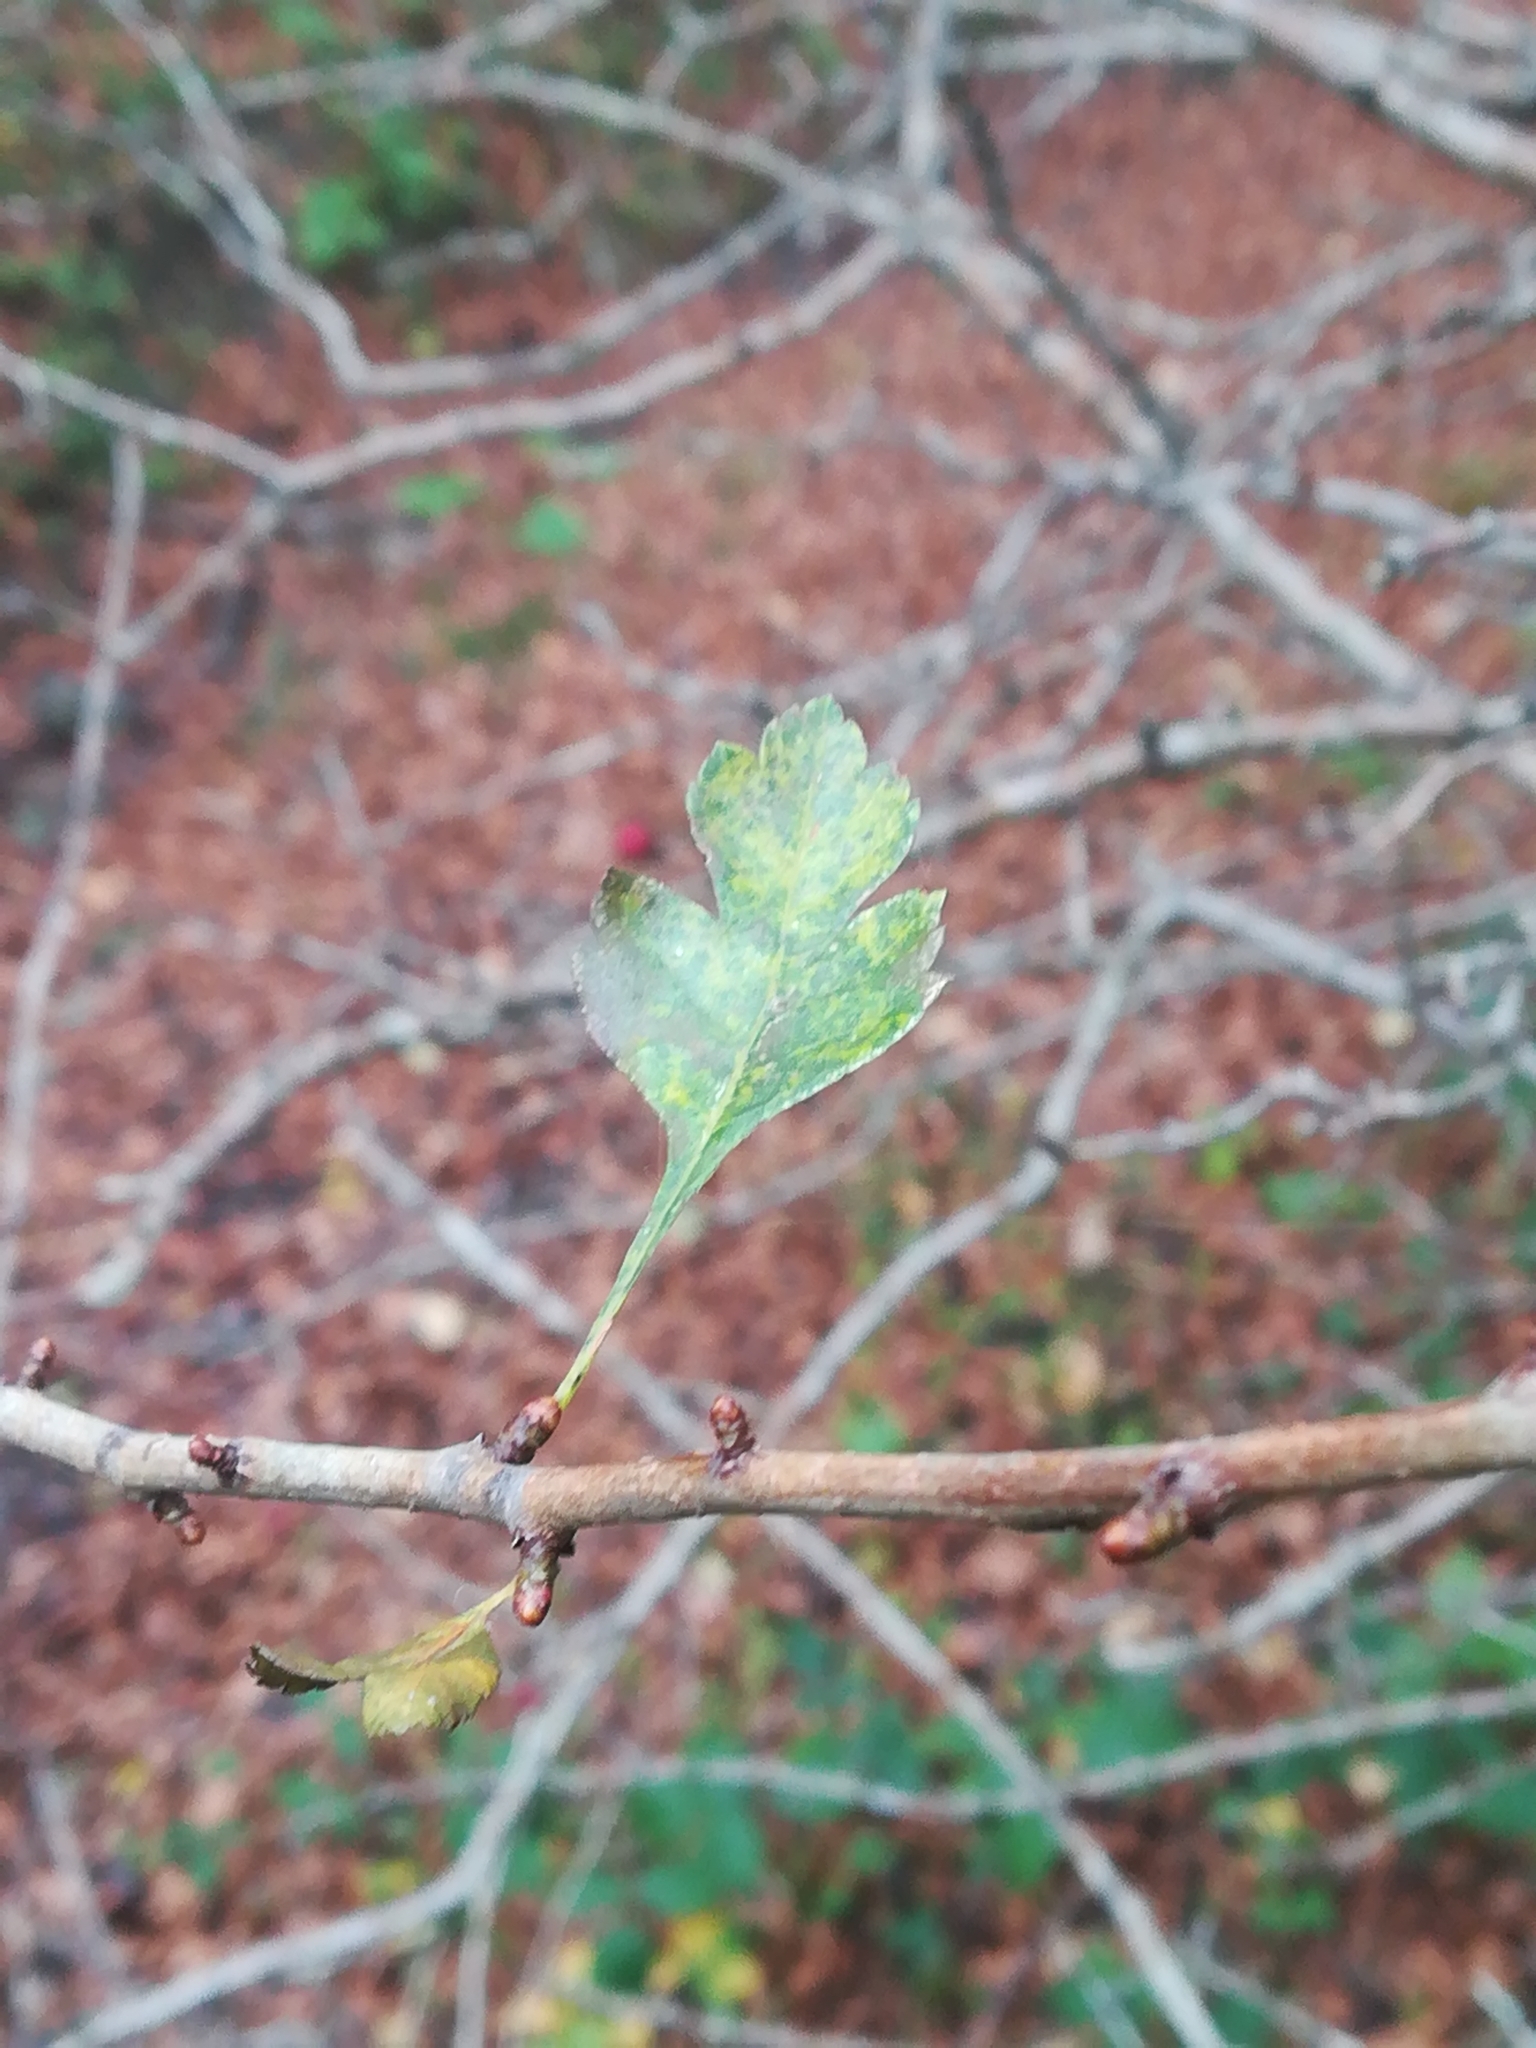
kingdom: Plantae
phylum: Tracheophyta
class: Magnoliopsida
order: Rosales
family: Rosaceae
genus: Crataegus
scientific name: Crataegus monogyna
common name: Hawthorn
